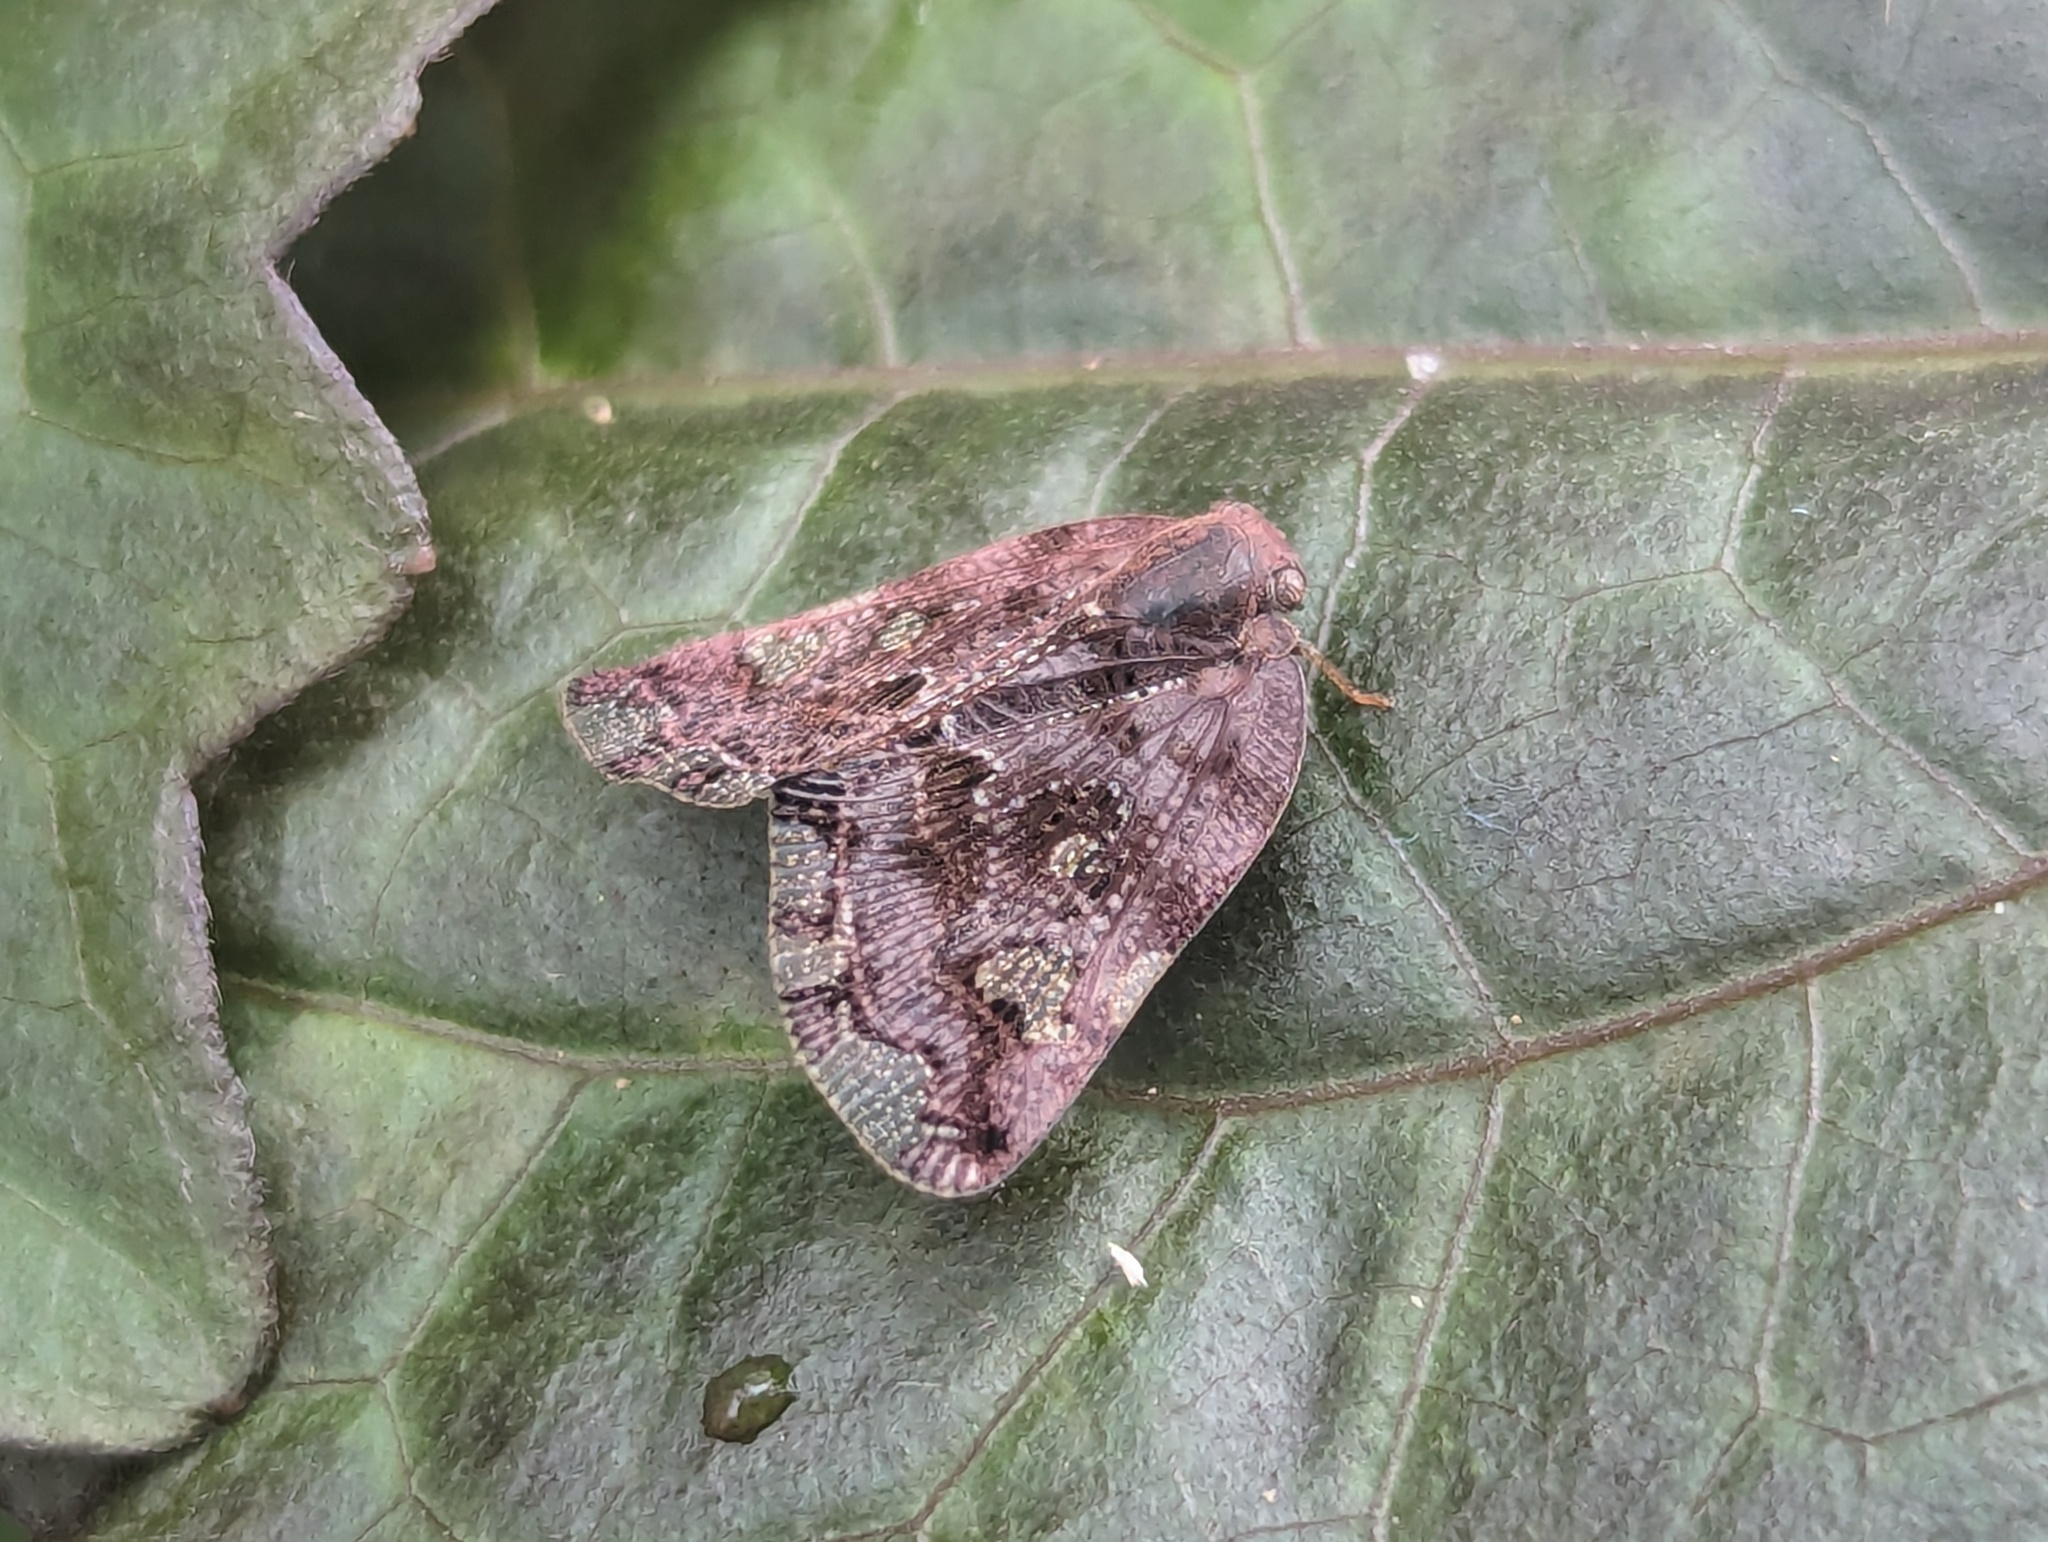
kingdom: Animalia
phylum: Arthropoda
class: Insecta
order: Hemiptera
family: Ricaniidae
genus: Ricania
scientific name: Ricania speculum
